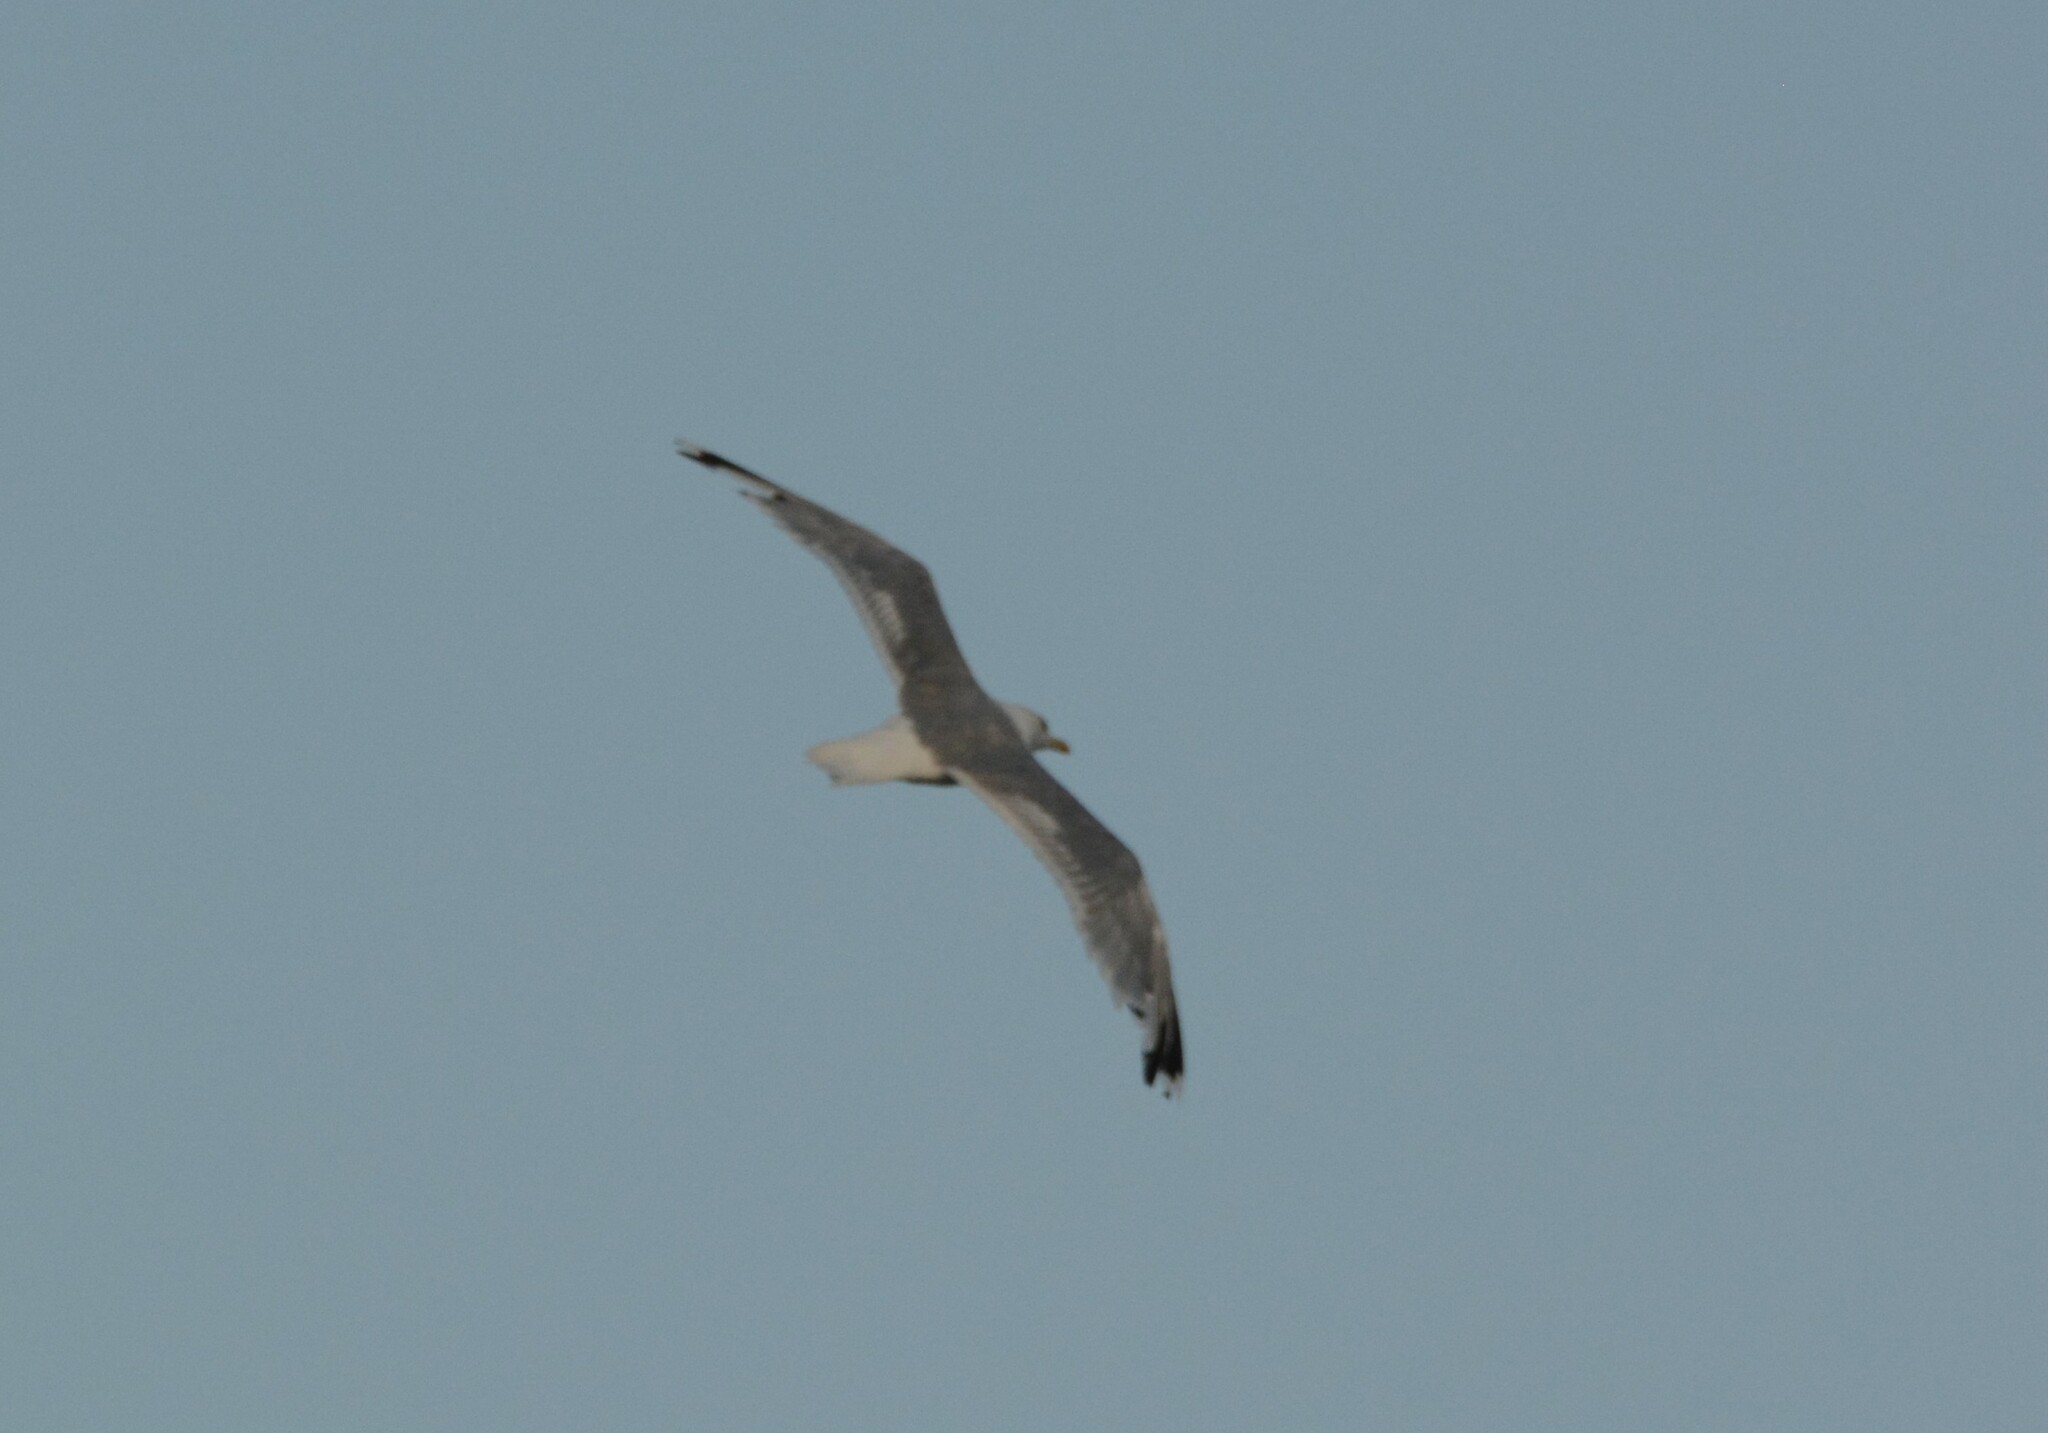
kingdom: Animalia
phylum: Chordata
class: Aves
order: Charadriiformes
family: Laridae
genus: Larus
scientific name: Larus cachinnans
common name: Caspian gull
